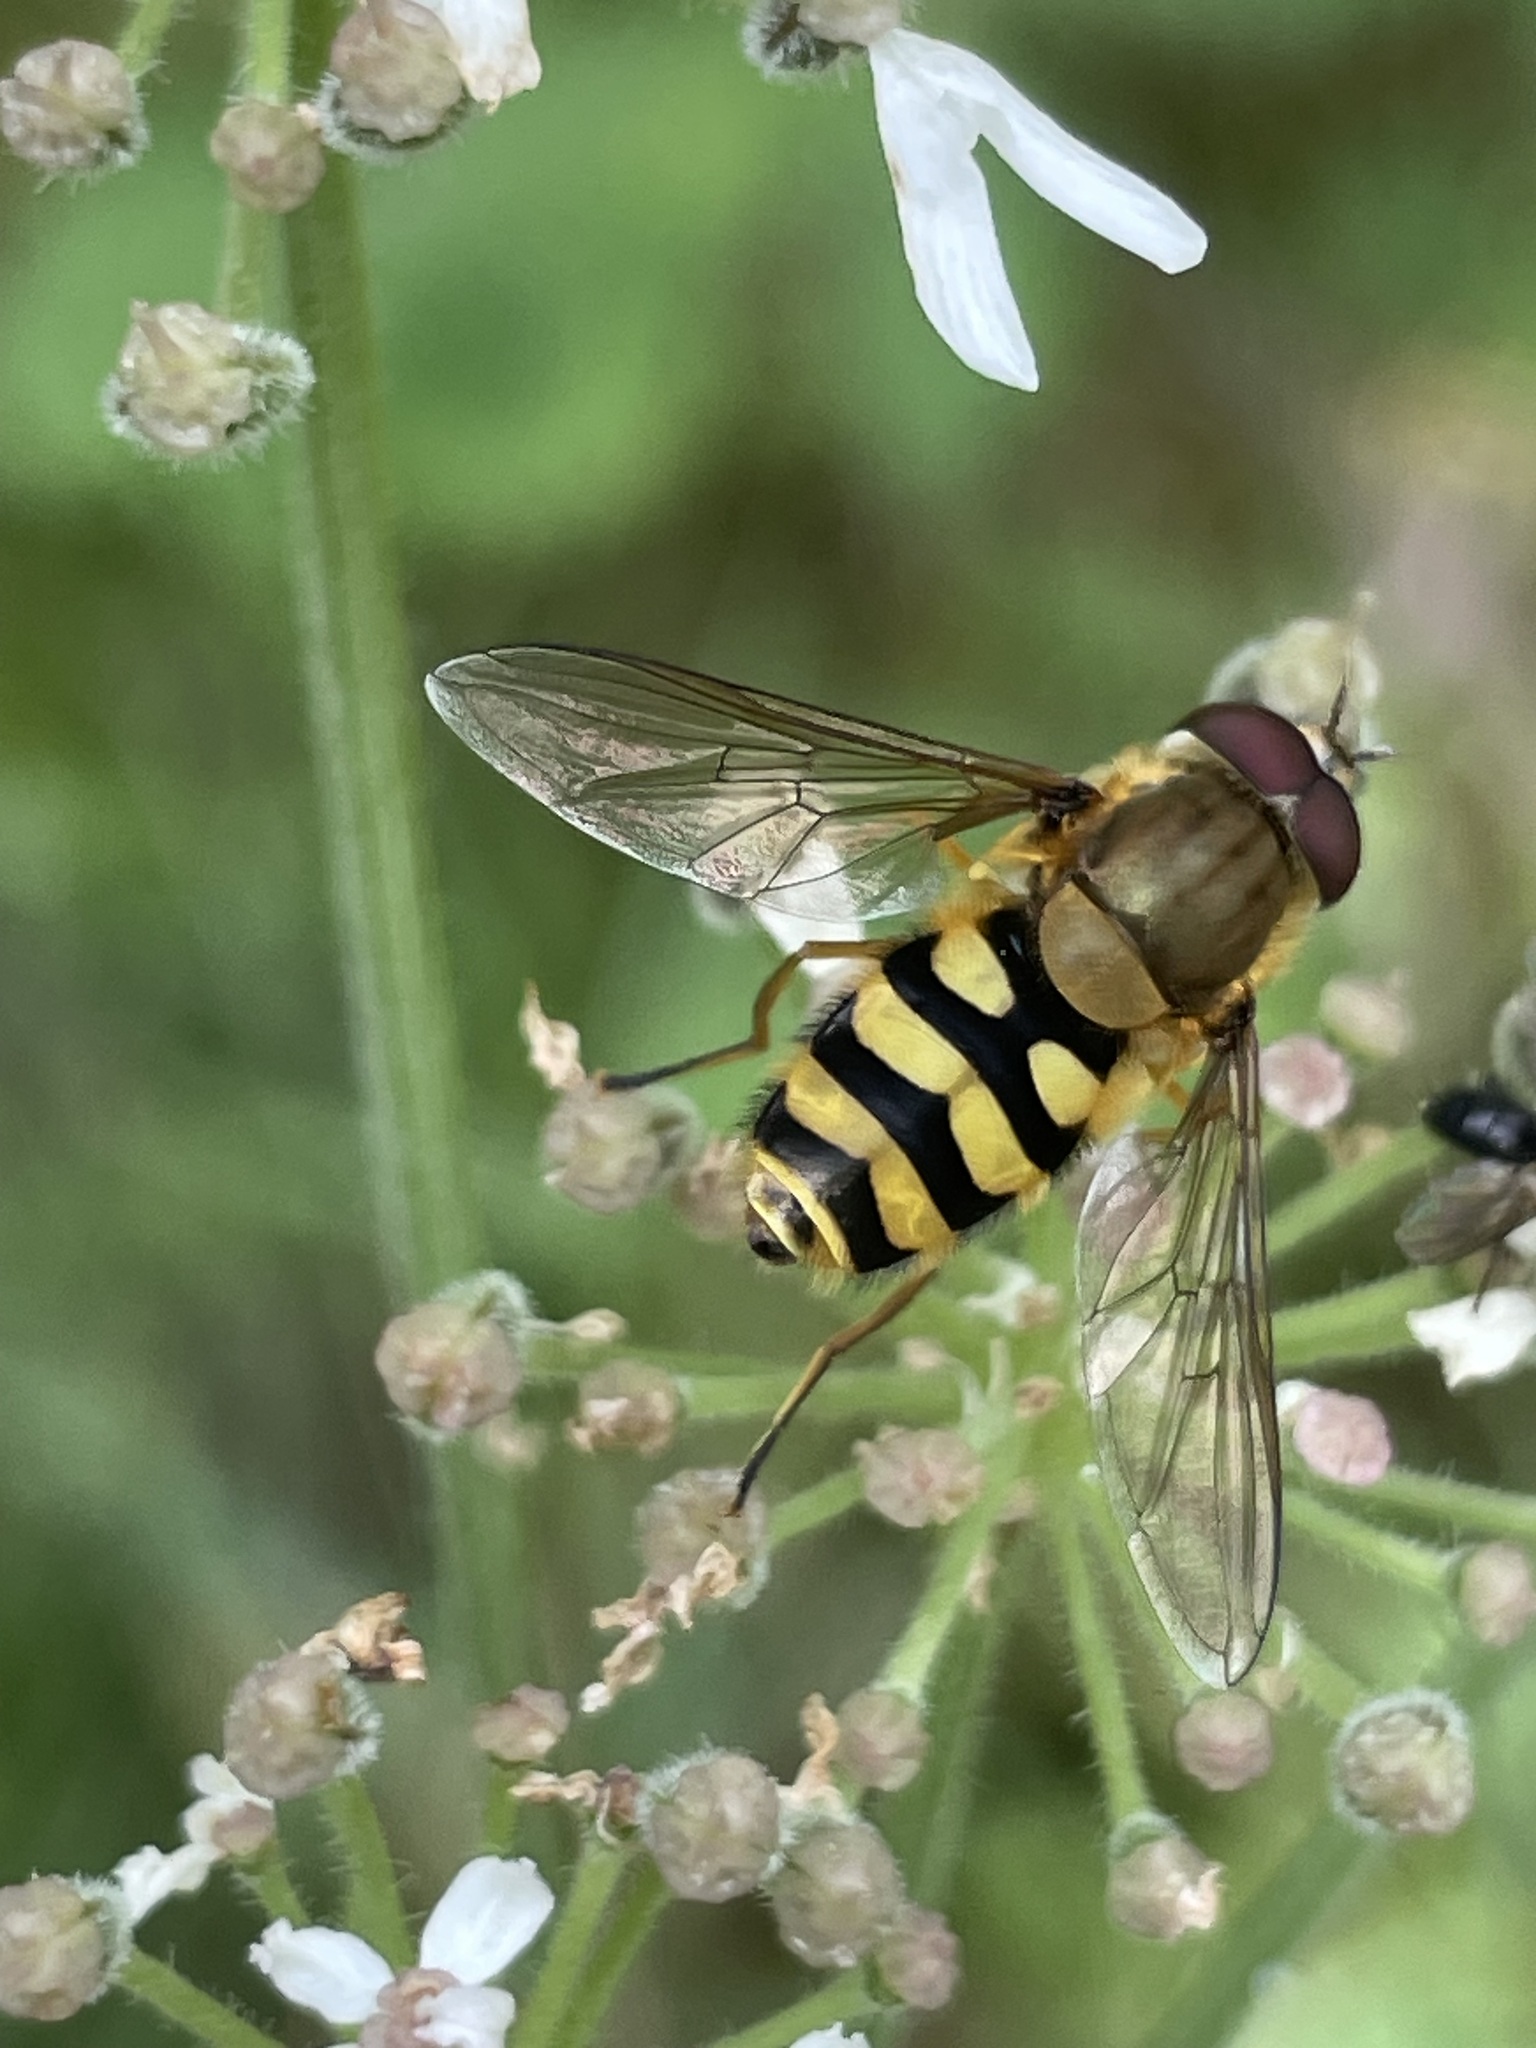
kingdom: Animalia
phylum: Arthropoda
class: Insecta
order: Diptera
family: Syrphidae
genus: Syrphus
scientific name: Syrphus
